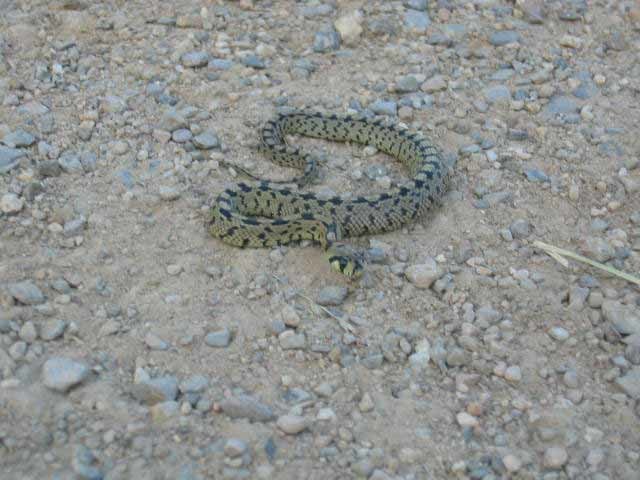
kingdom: Animalia
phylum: Chordata
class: Squamata
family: Colubridae
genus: Zamenis
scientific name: Zamenis scalaris
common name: Ladder snakes
